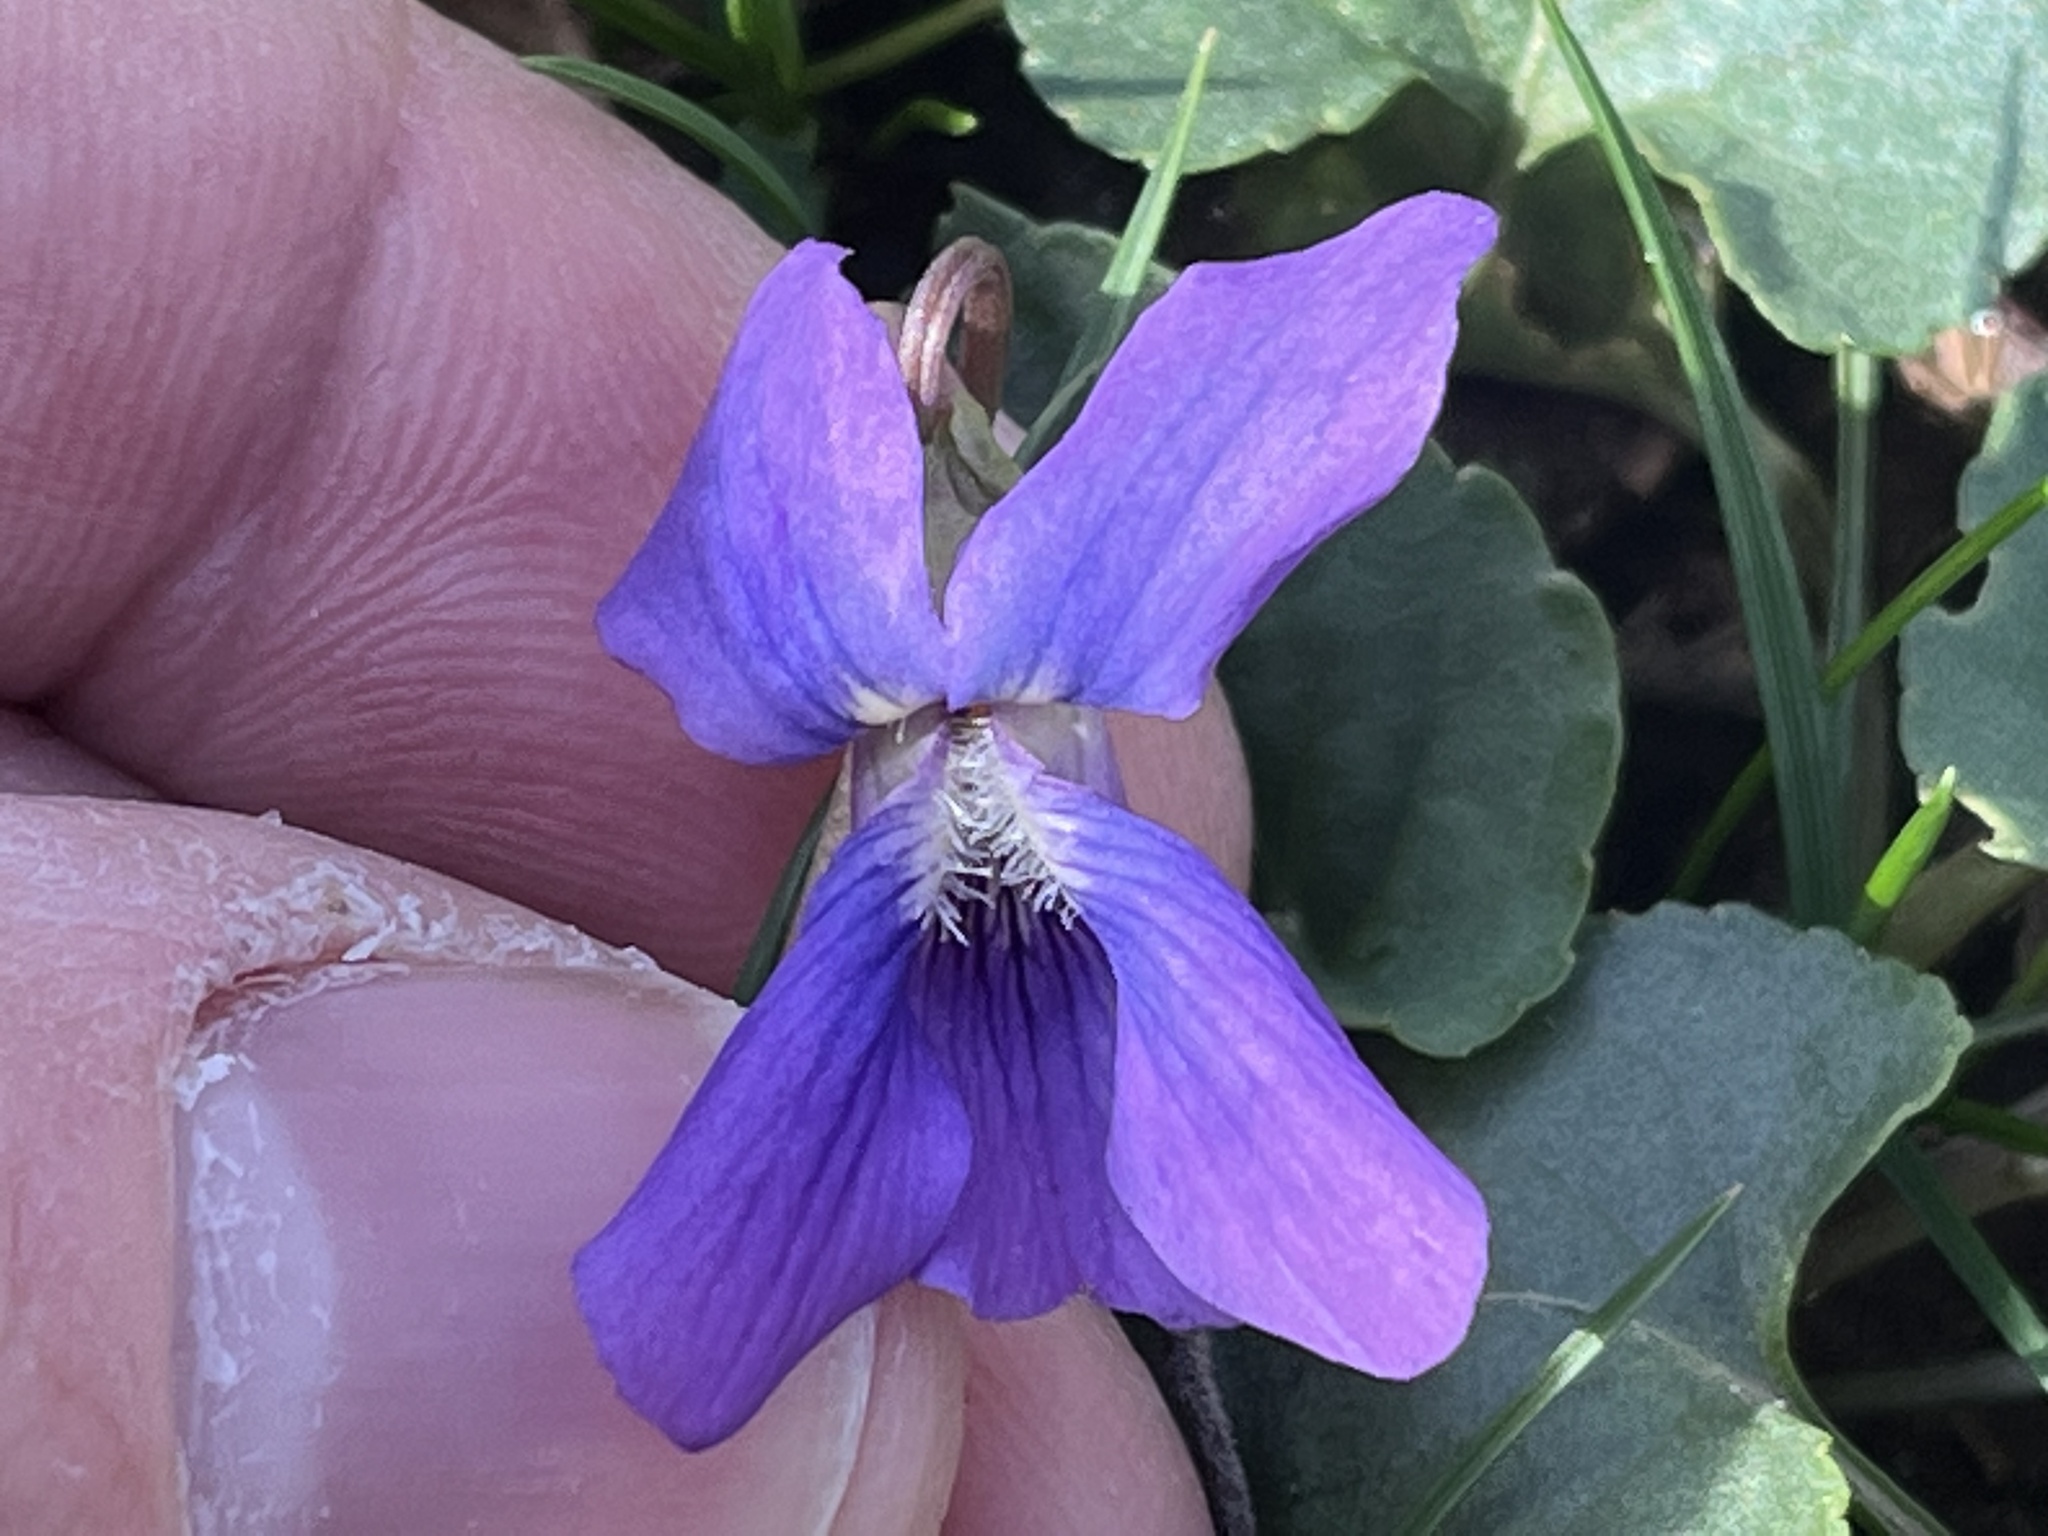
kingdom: Plantae
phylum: Tracheophyta
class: Magnoliopsida
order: Malpighiales
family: Violaceae
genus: Viola
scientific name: Viola sororia
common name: Dooryard violet
